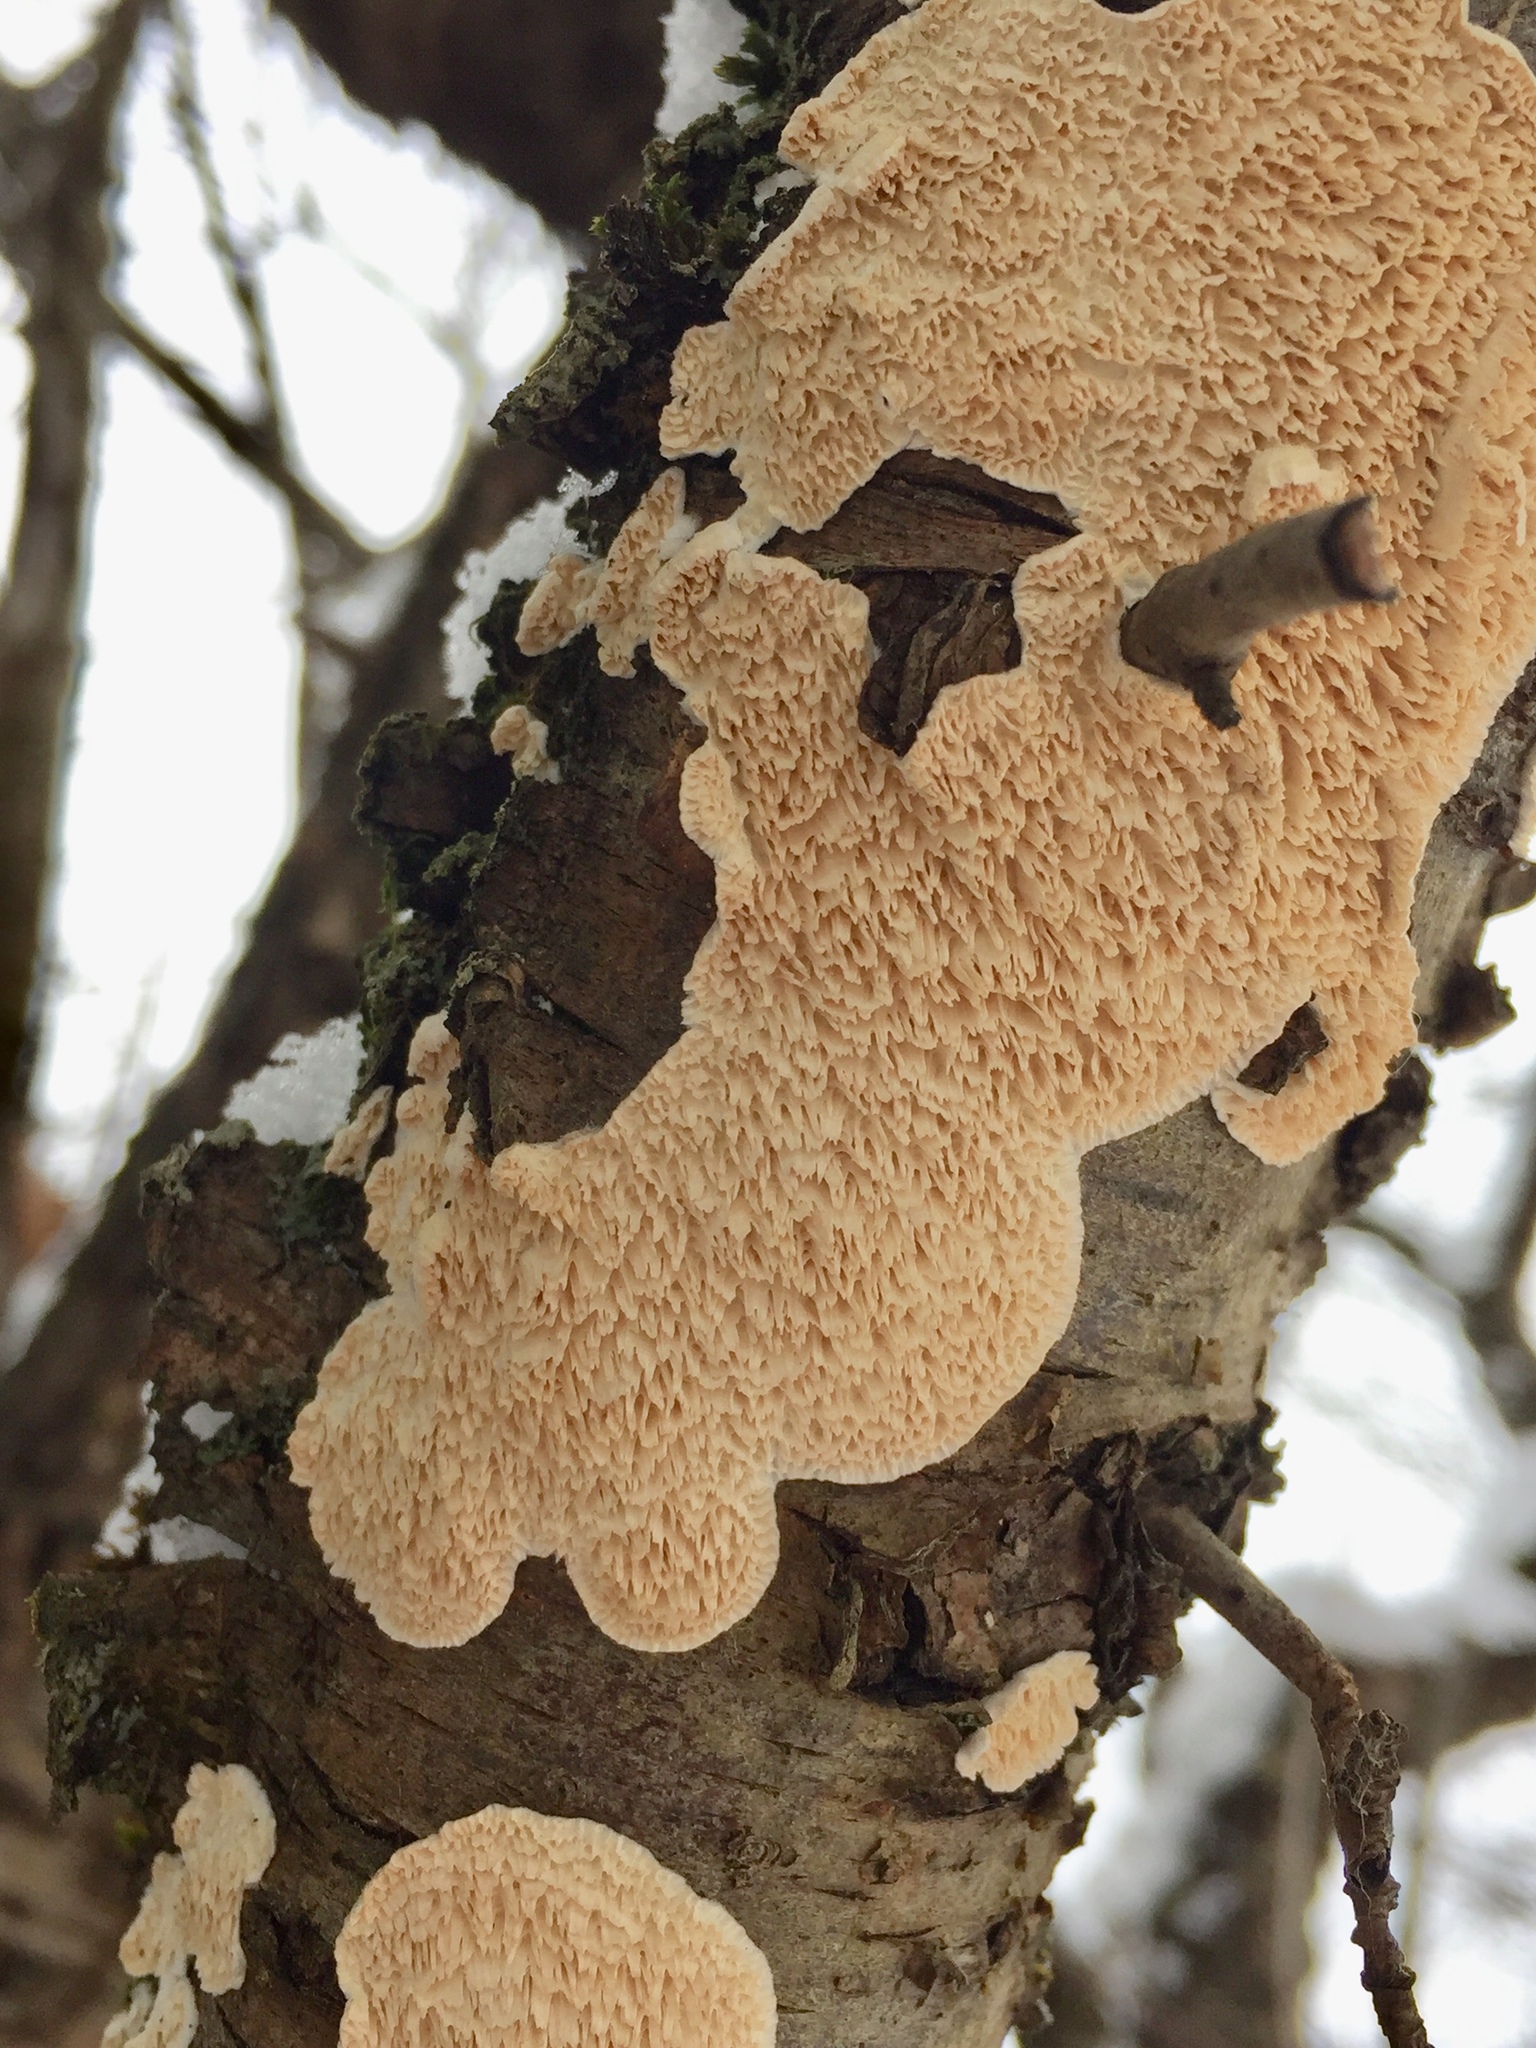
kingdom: Fungi
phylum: Basidiomycota
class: Agaricomycetes
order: Polyporales
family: Irpicaceae
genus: Irpex
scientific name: Irpex lacteus
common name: Milk-white toothed polypore
